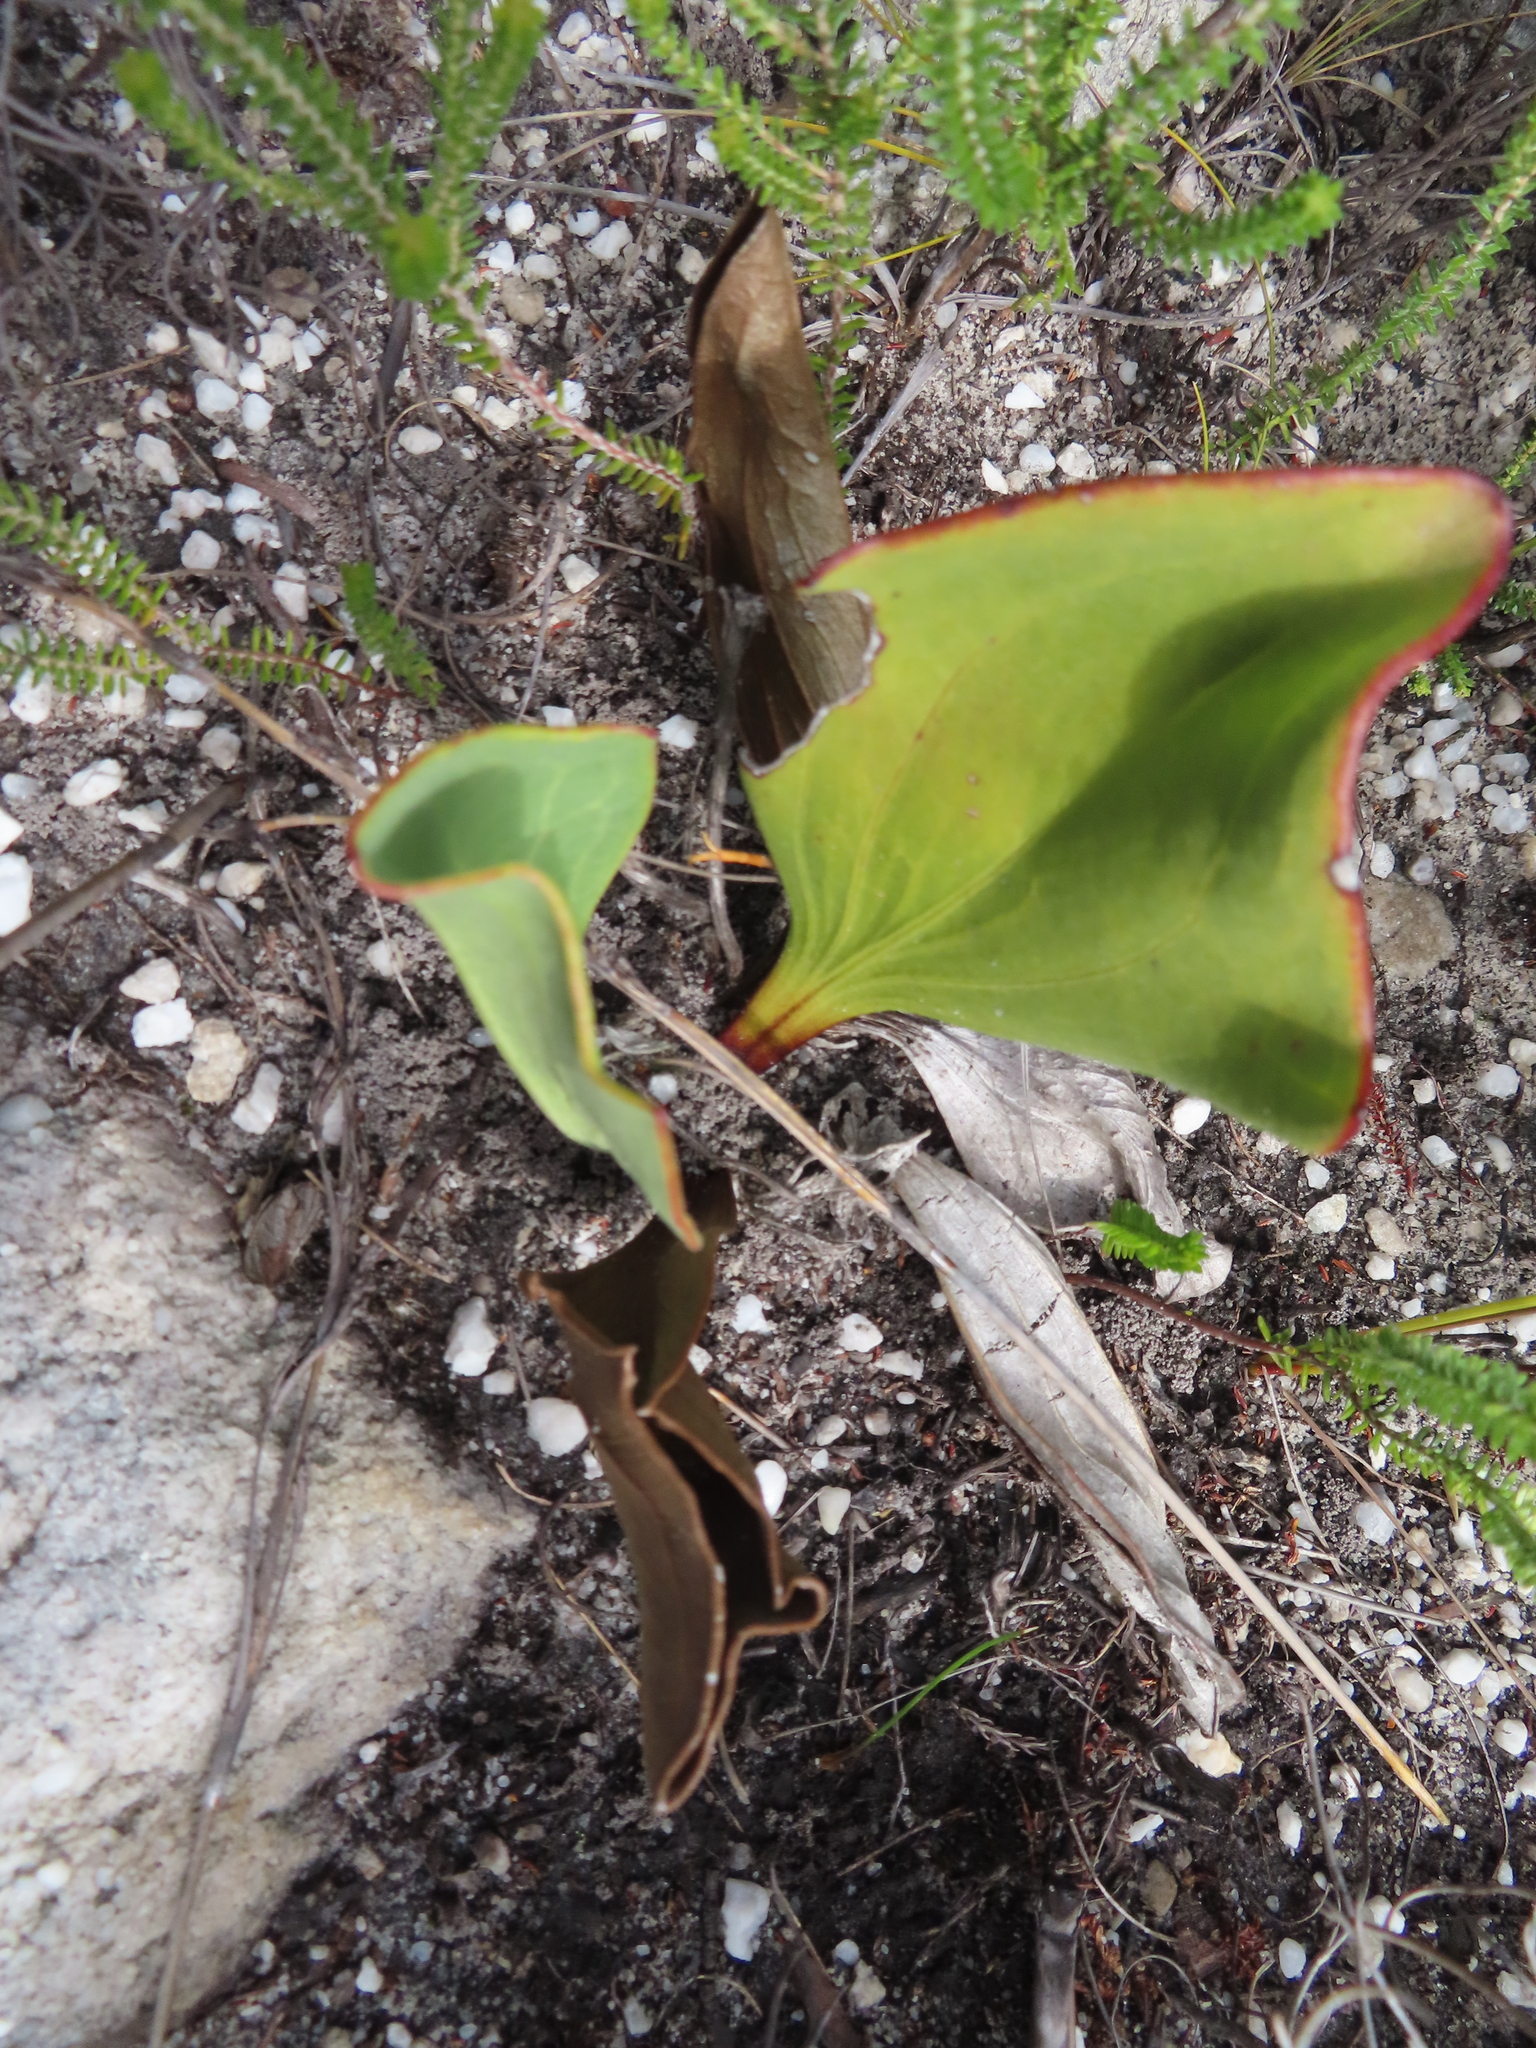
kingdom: Plantae
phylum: Tracheophyta
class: Magnoliopsida
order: Asterales
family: Asteraceae
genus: Mairia
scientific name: Mairia coriacea
